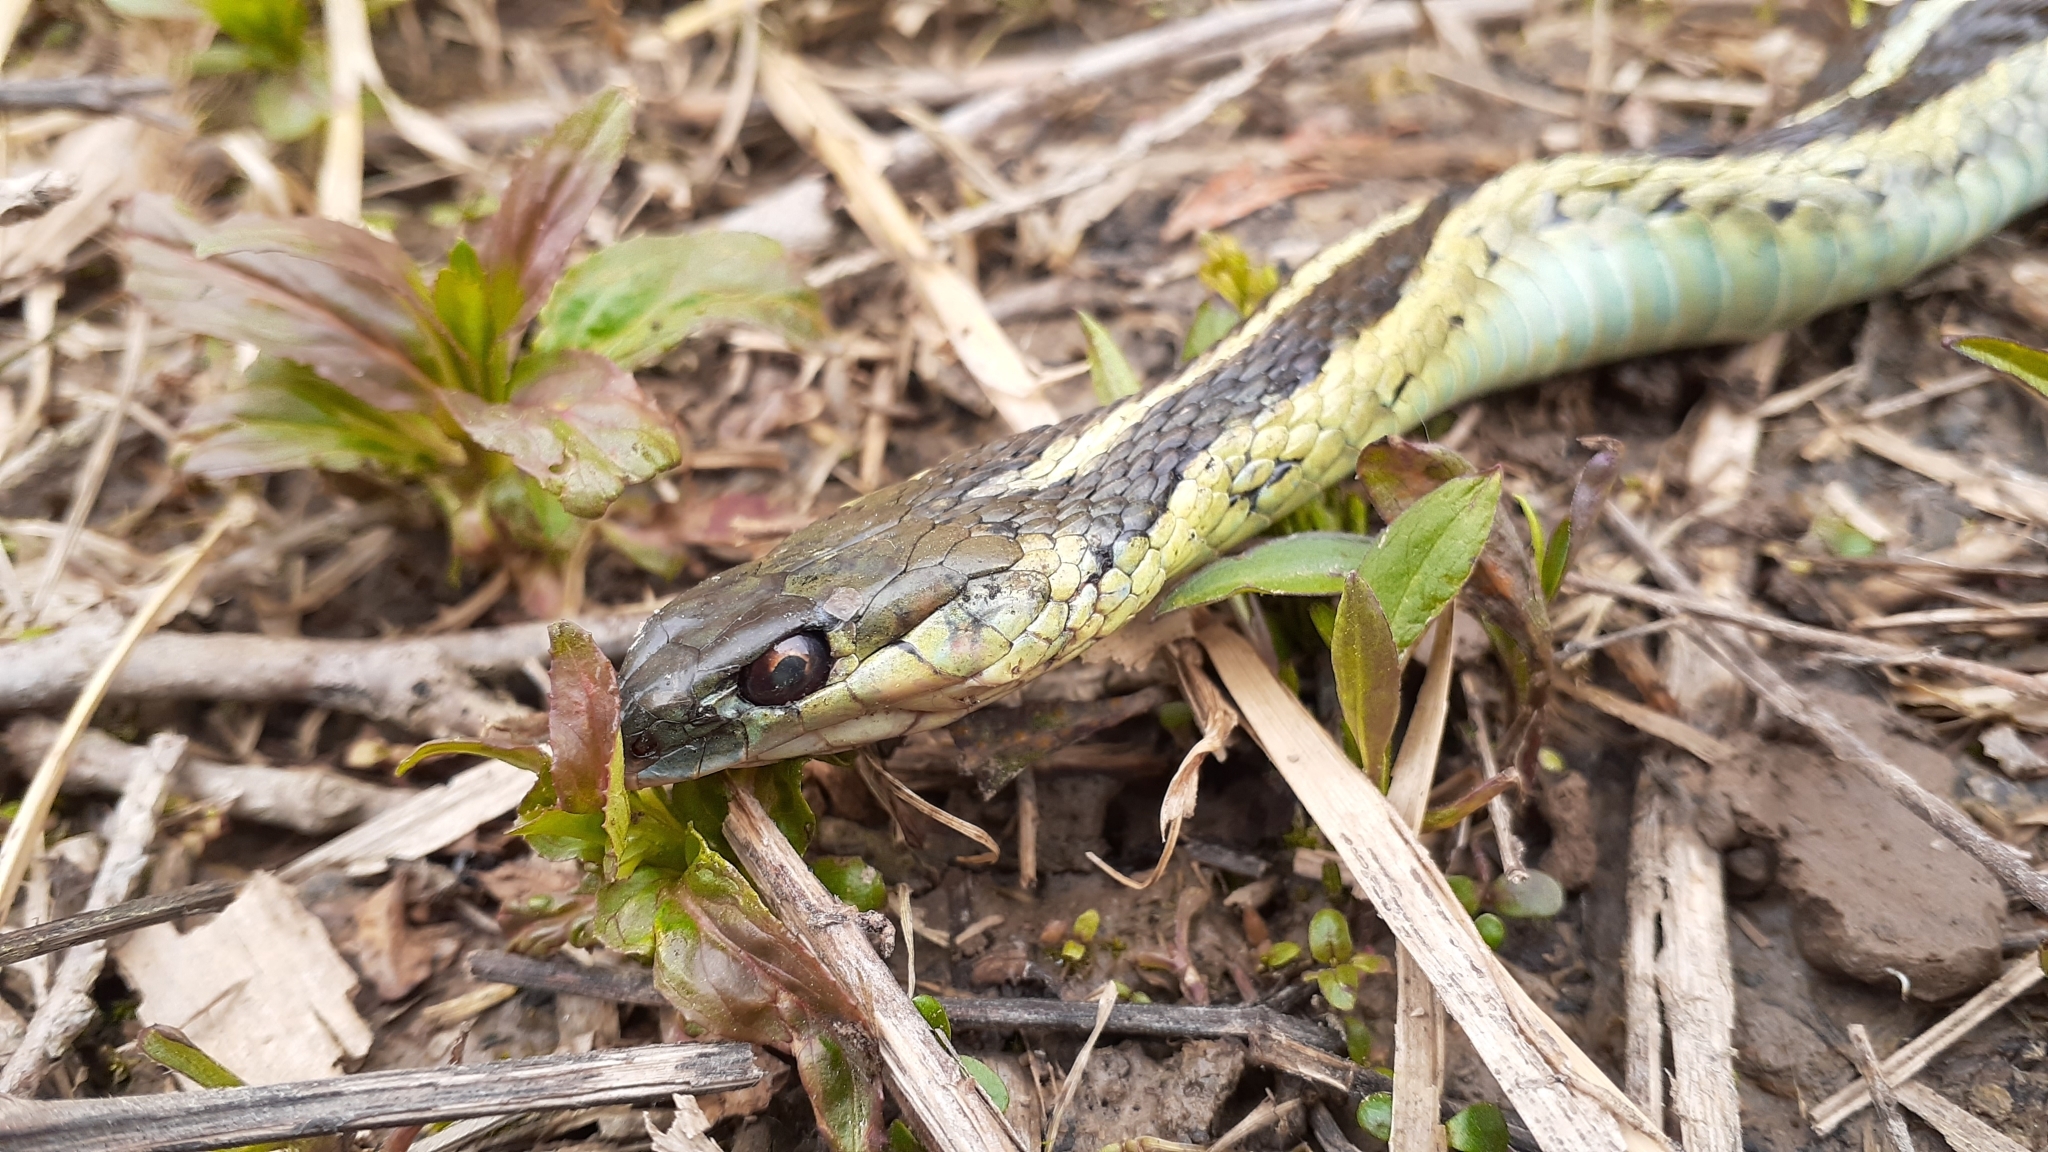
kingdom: Animalia
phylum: Chordata
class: Squamata
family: Colubridae
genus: Thamnophis
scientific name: Thamnophis sirtalis
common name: Common garter snake
